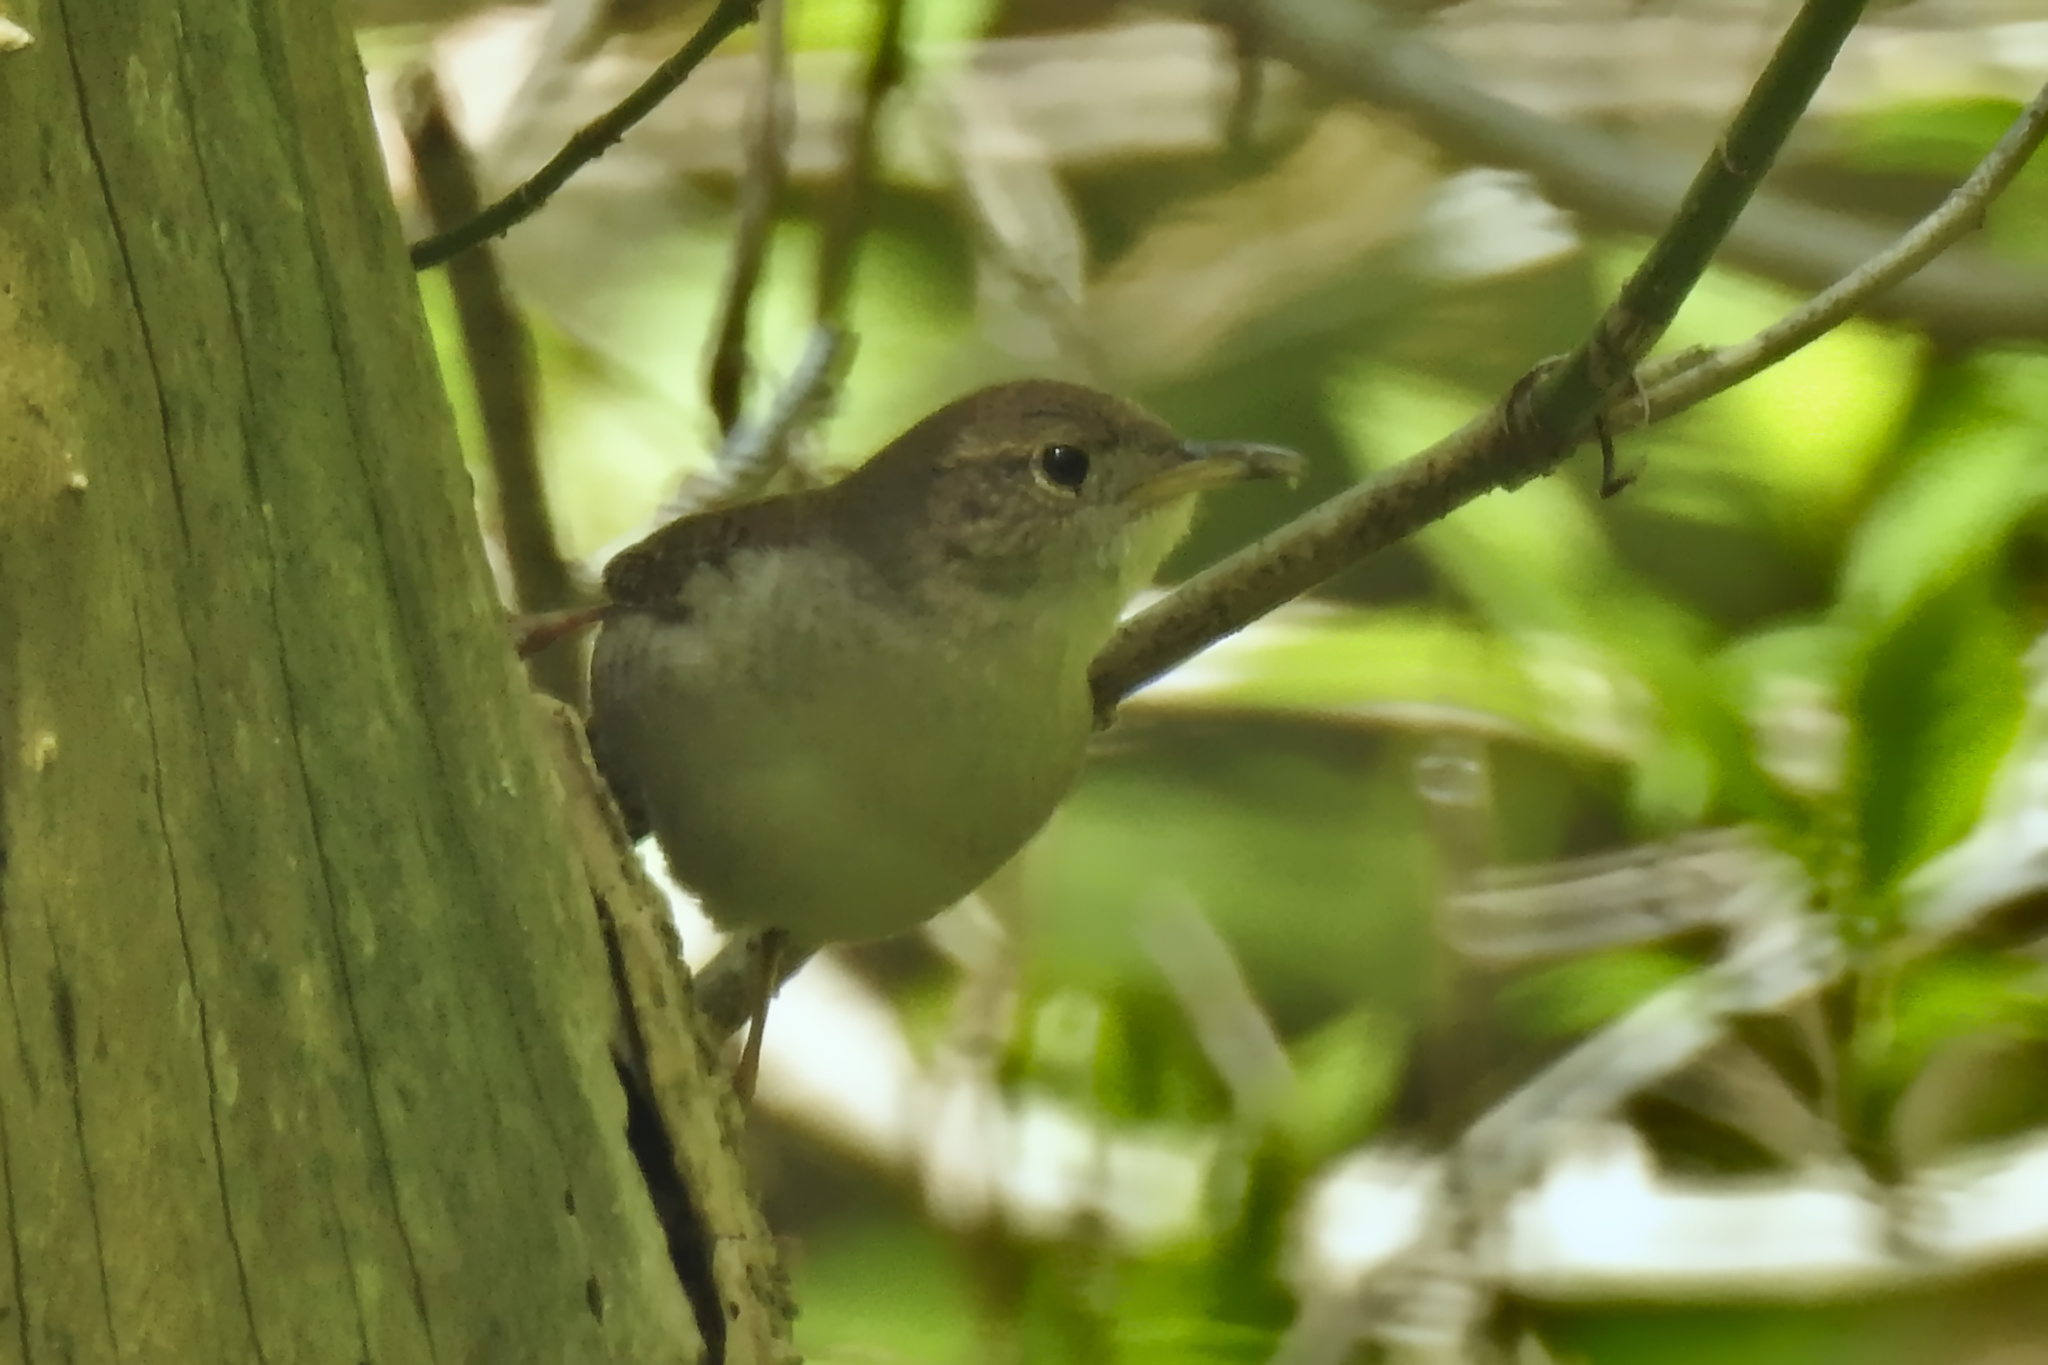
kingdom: Animalia
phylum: Chordata
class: Aves
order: Passeriformes
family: Troglodytidae
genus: Troglodytes
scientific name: Troglodytes aedon
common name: House wren
